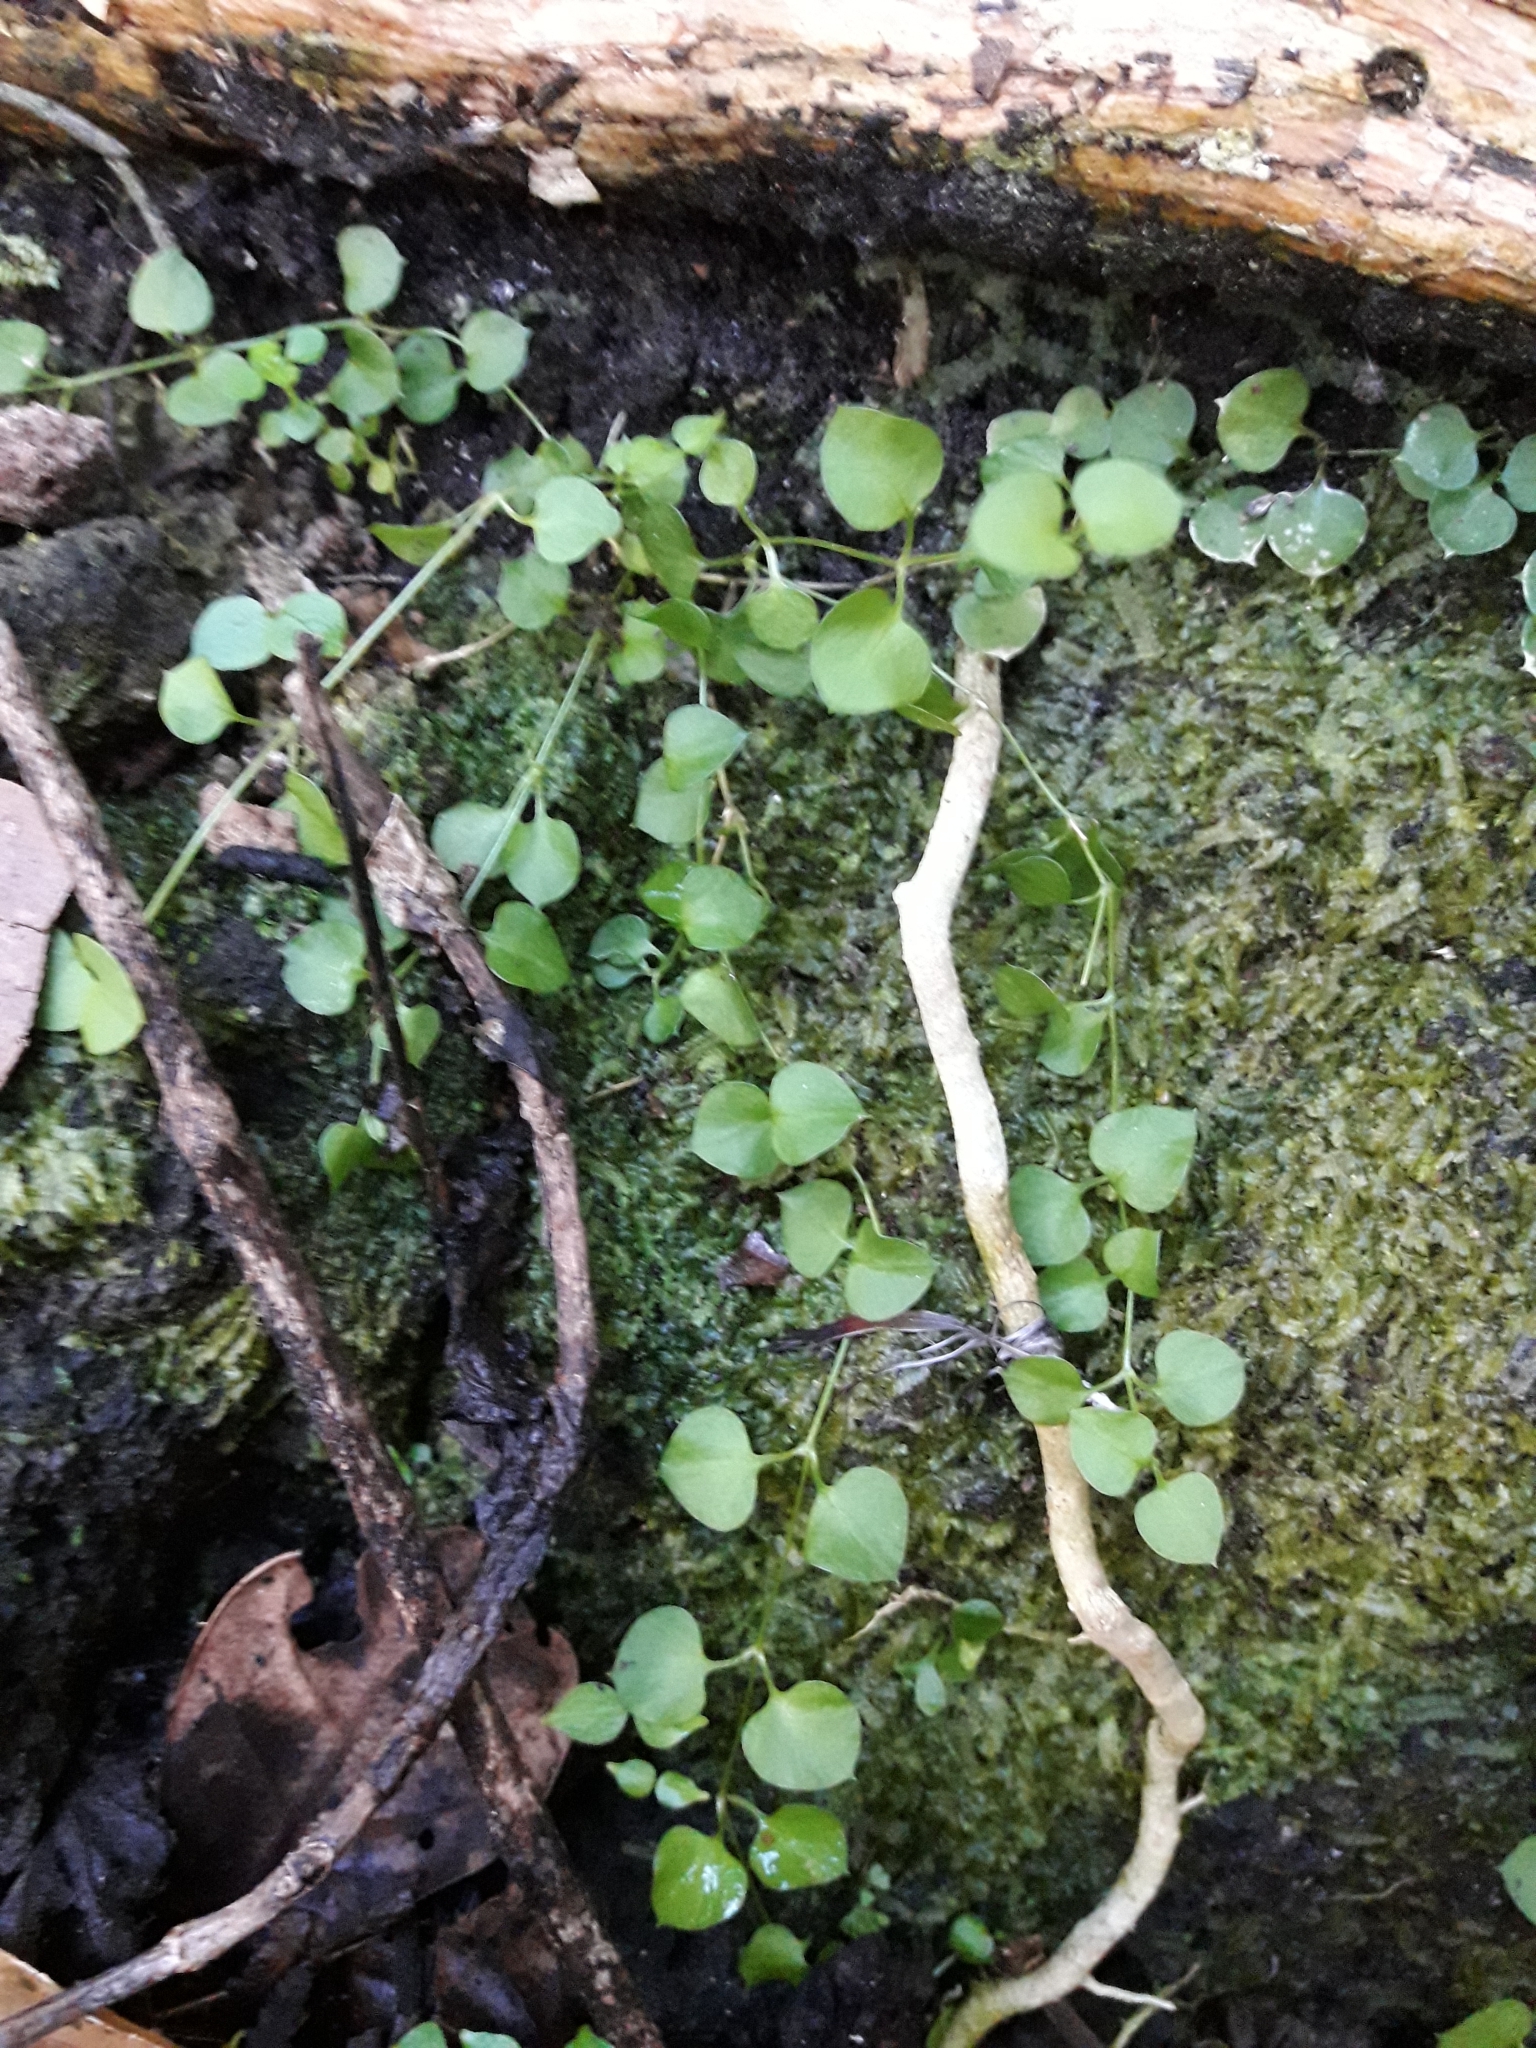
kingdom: Plantae
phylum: Tracheophyta
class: Magnoliopsida
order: Caryophyllales
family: Caryophyllaceae
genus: Stellaria
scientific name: Stellaria parviflora
